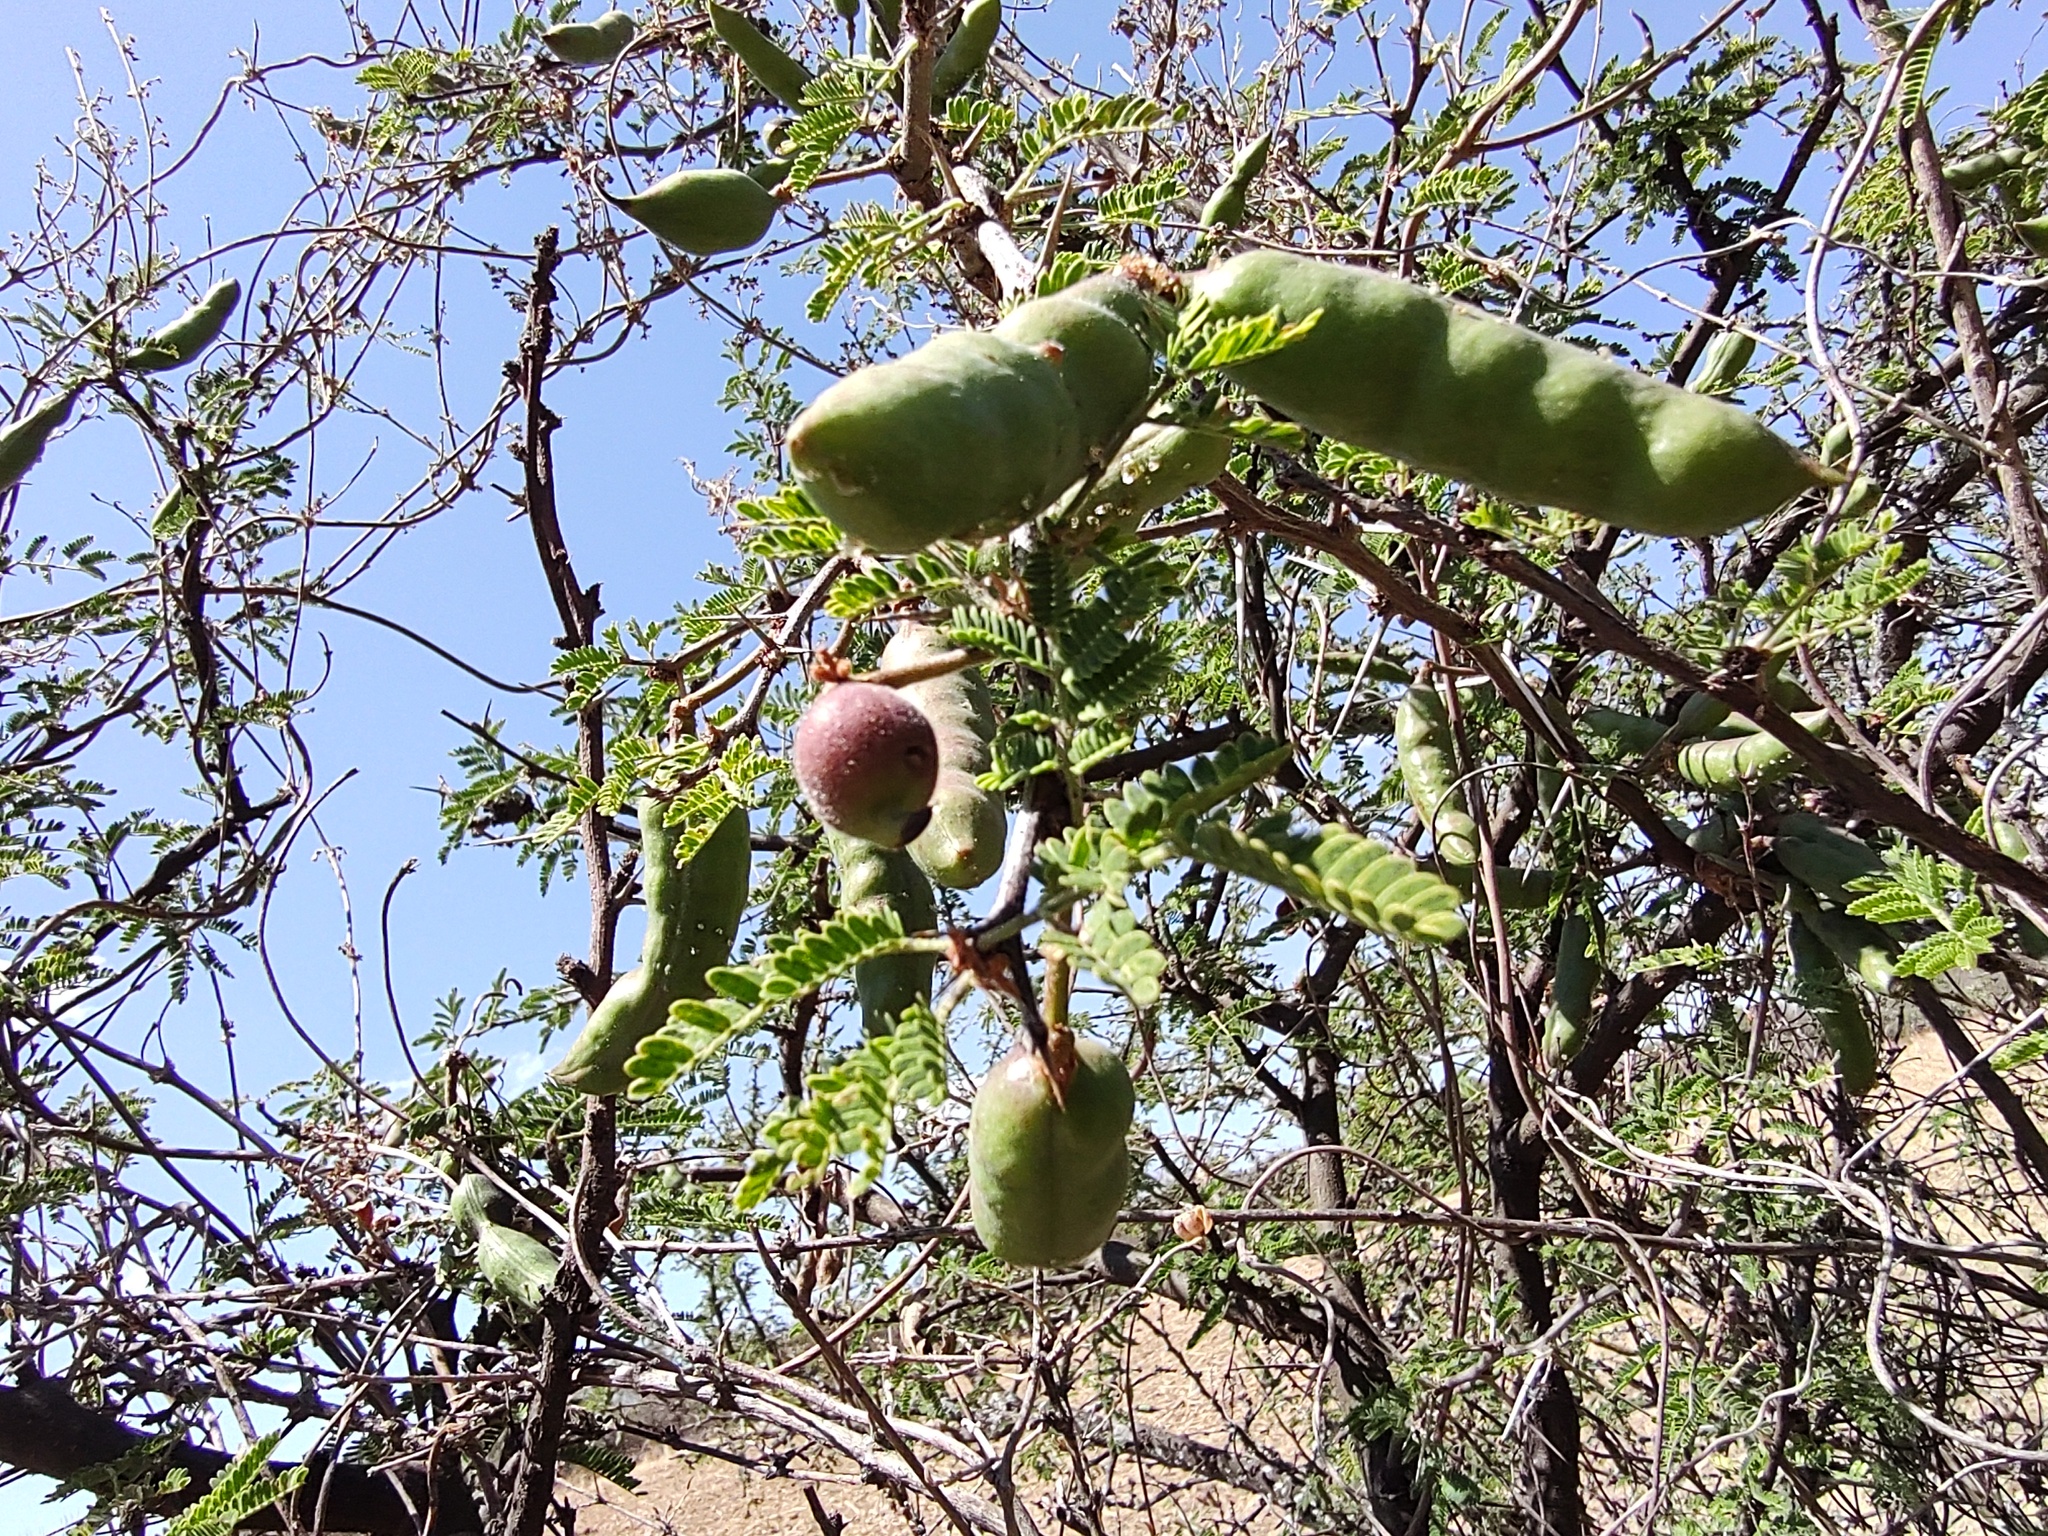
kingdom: Plantae
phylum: Tracheophyta
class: Magnoliopsida
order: Fabales
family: Fabaceae
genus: Vachellia
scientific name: Vachellia farnesiana
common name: Sweet acacia
